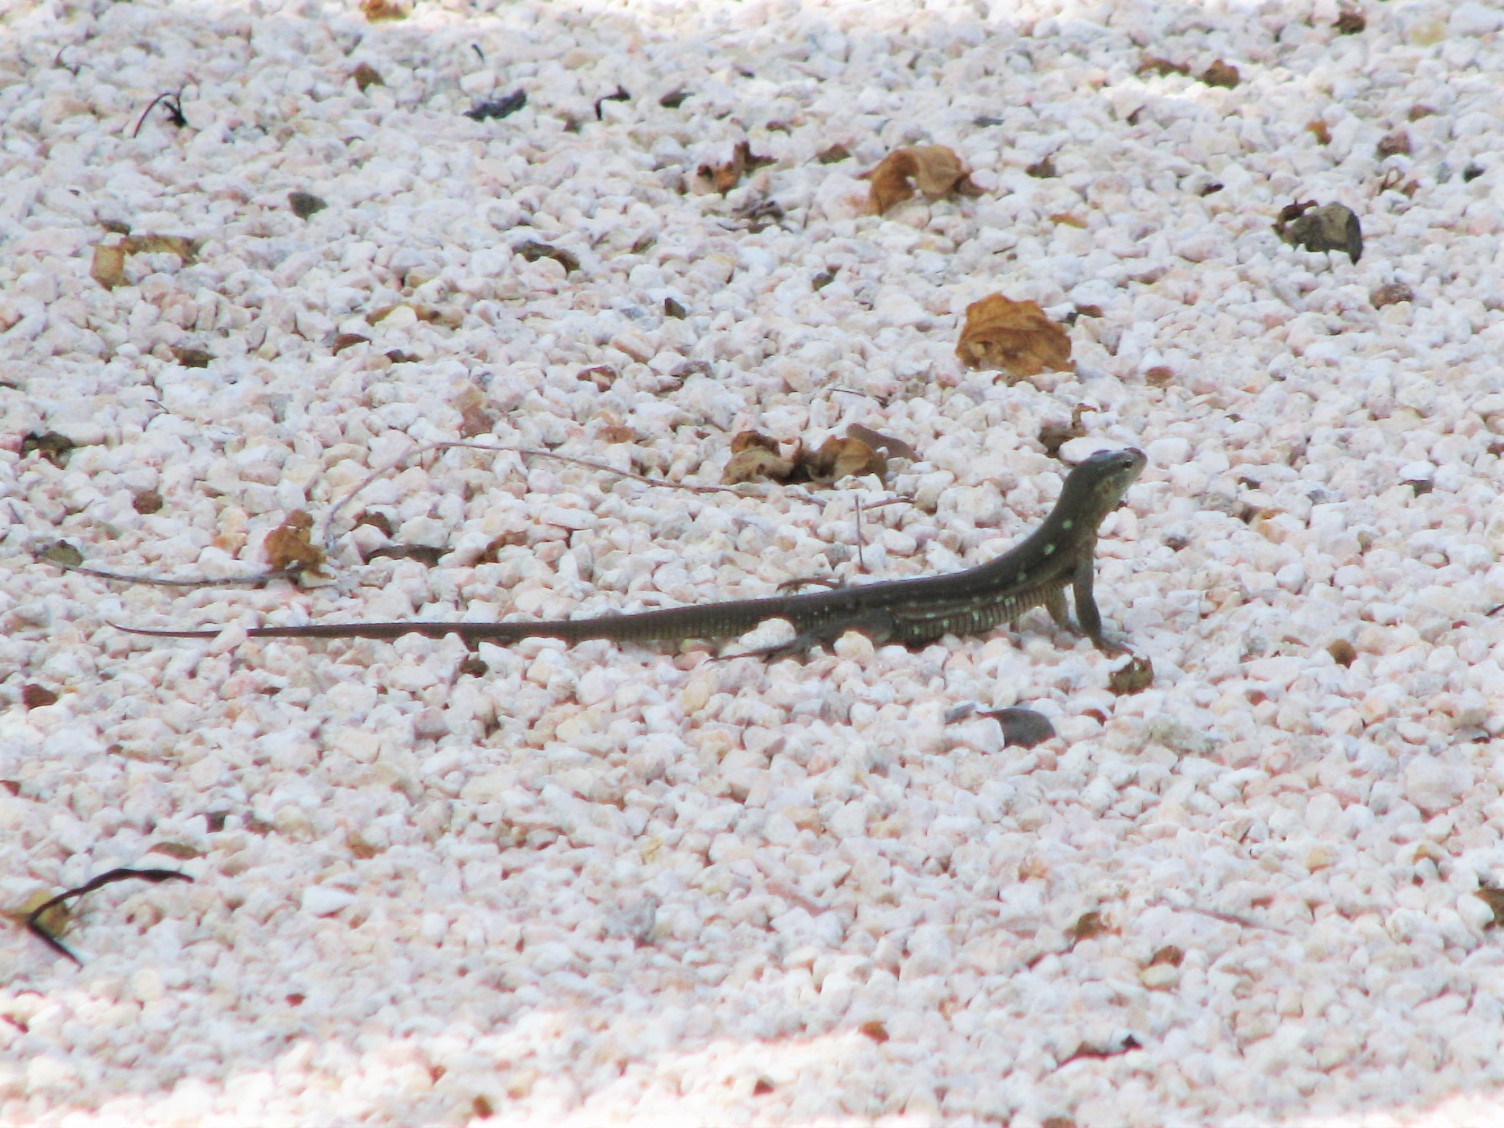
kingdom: Animalia
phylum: Chordata
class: Squamata
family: Teiidae
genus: Cnemidophorus
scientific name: Cnemidophorus murinus
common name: Laurent's whiptail
